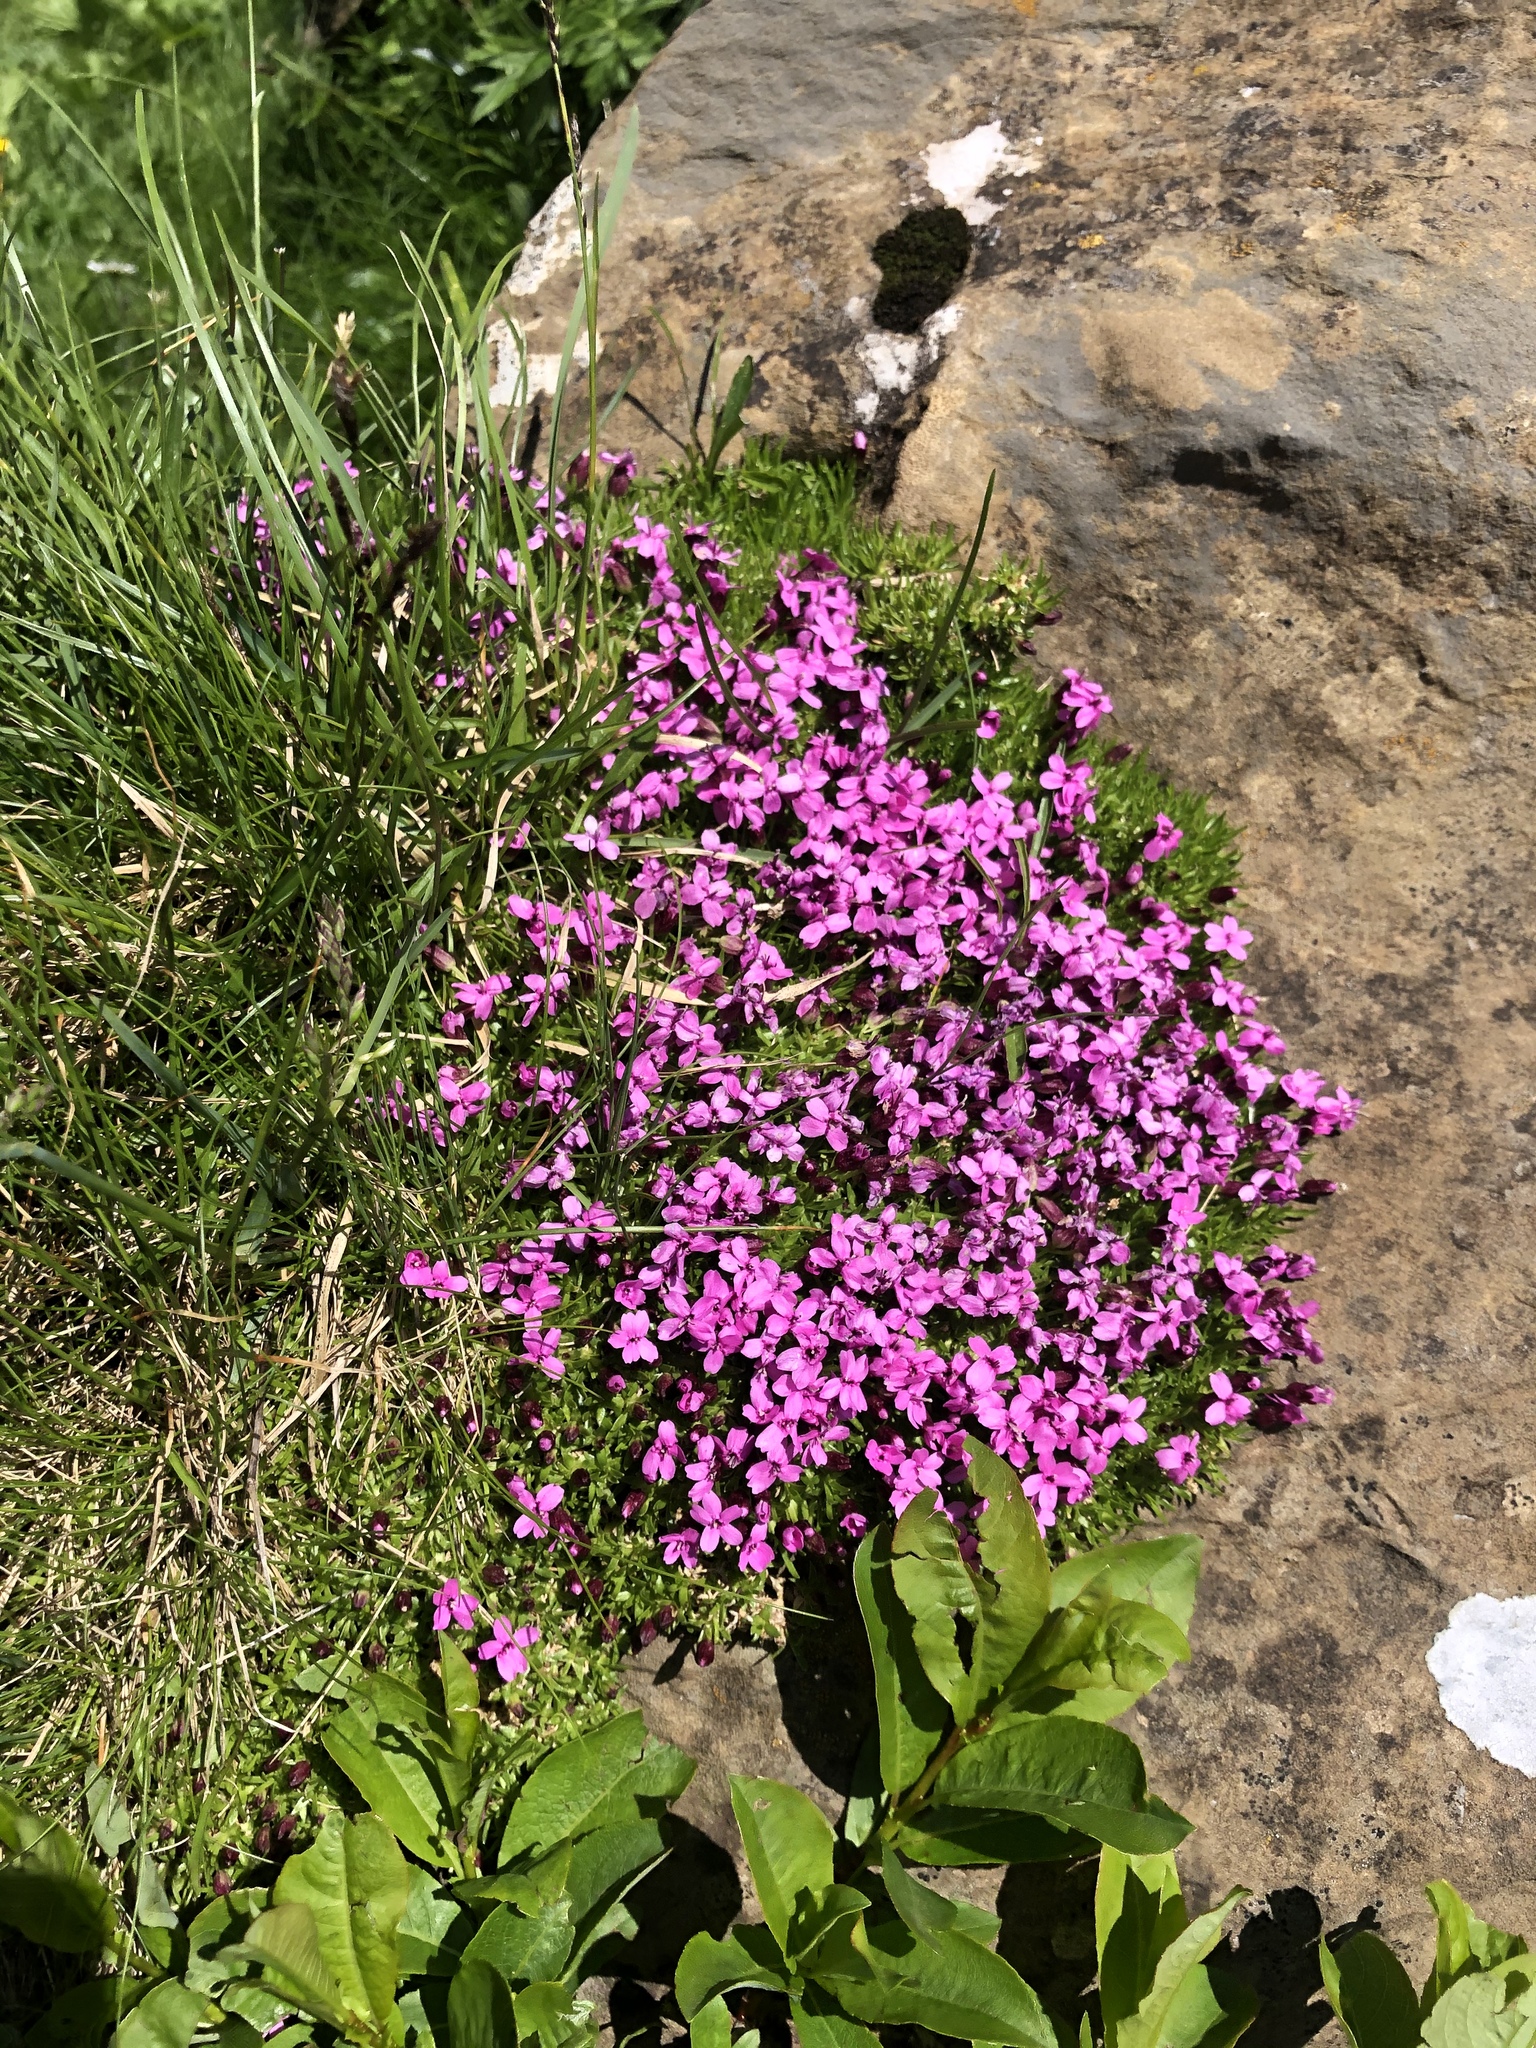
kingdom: Plantae
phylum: Tracheophyta
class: Magnoliopsida
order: Caryophyllales
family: Caryophyllaceae
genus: Silene
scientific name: Silene acaulis
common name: Moss campion
